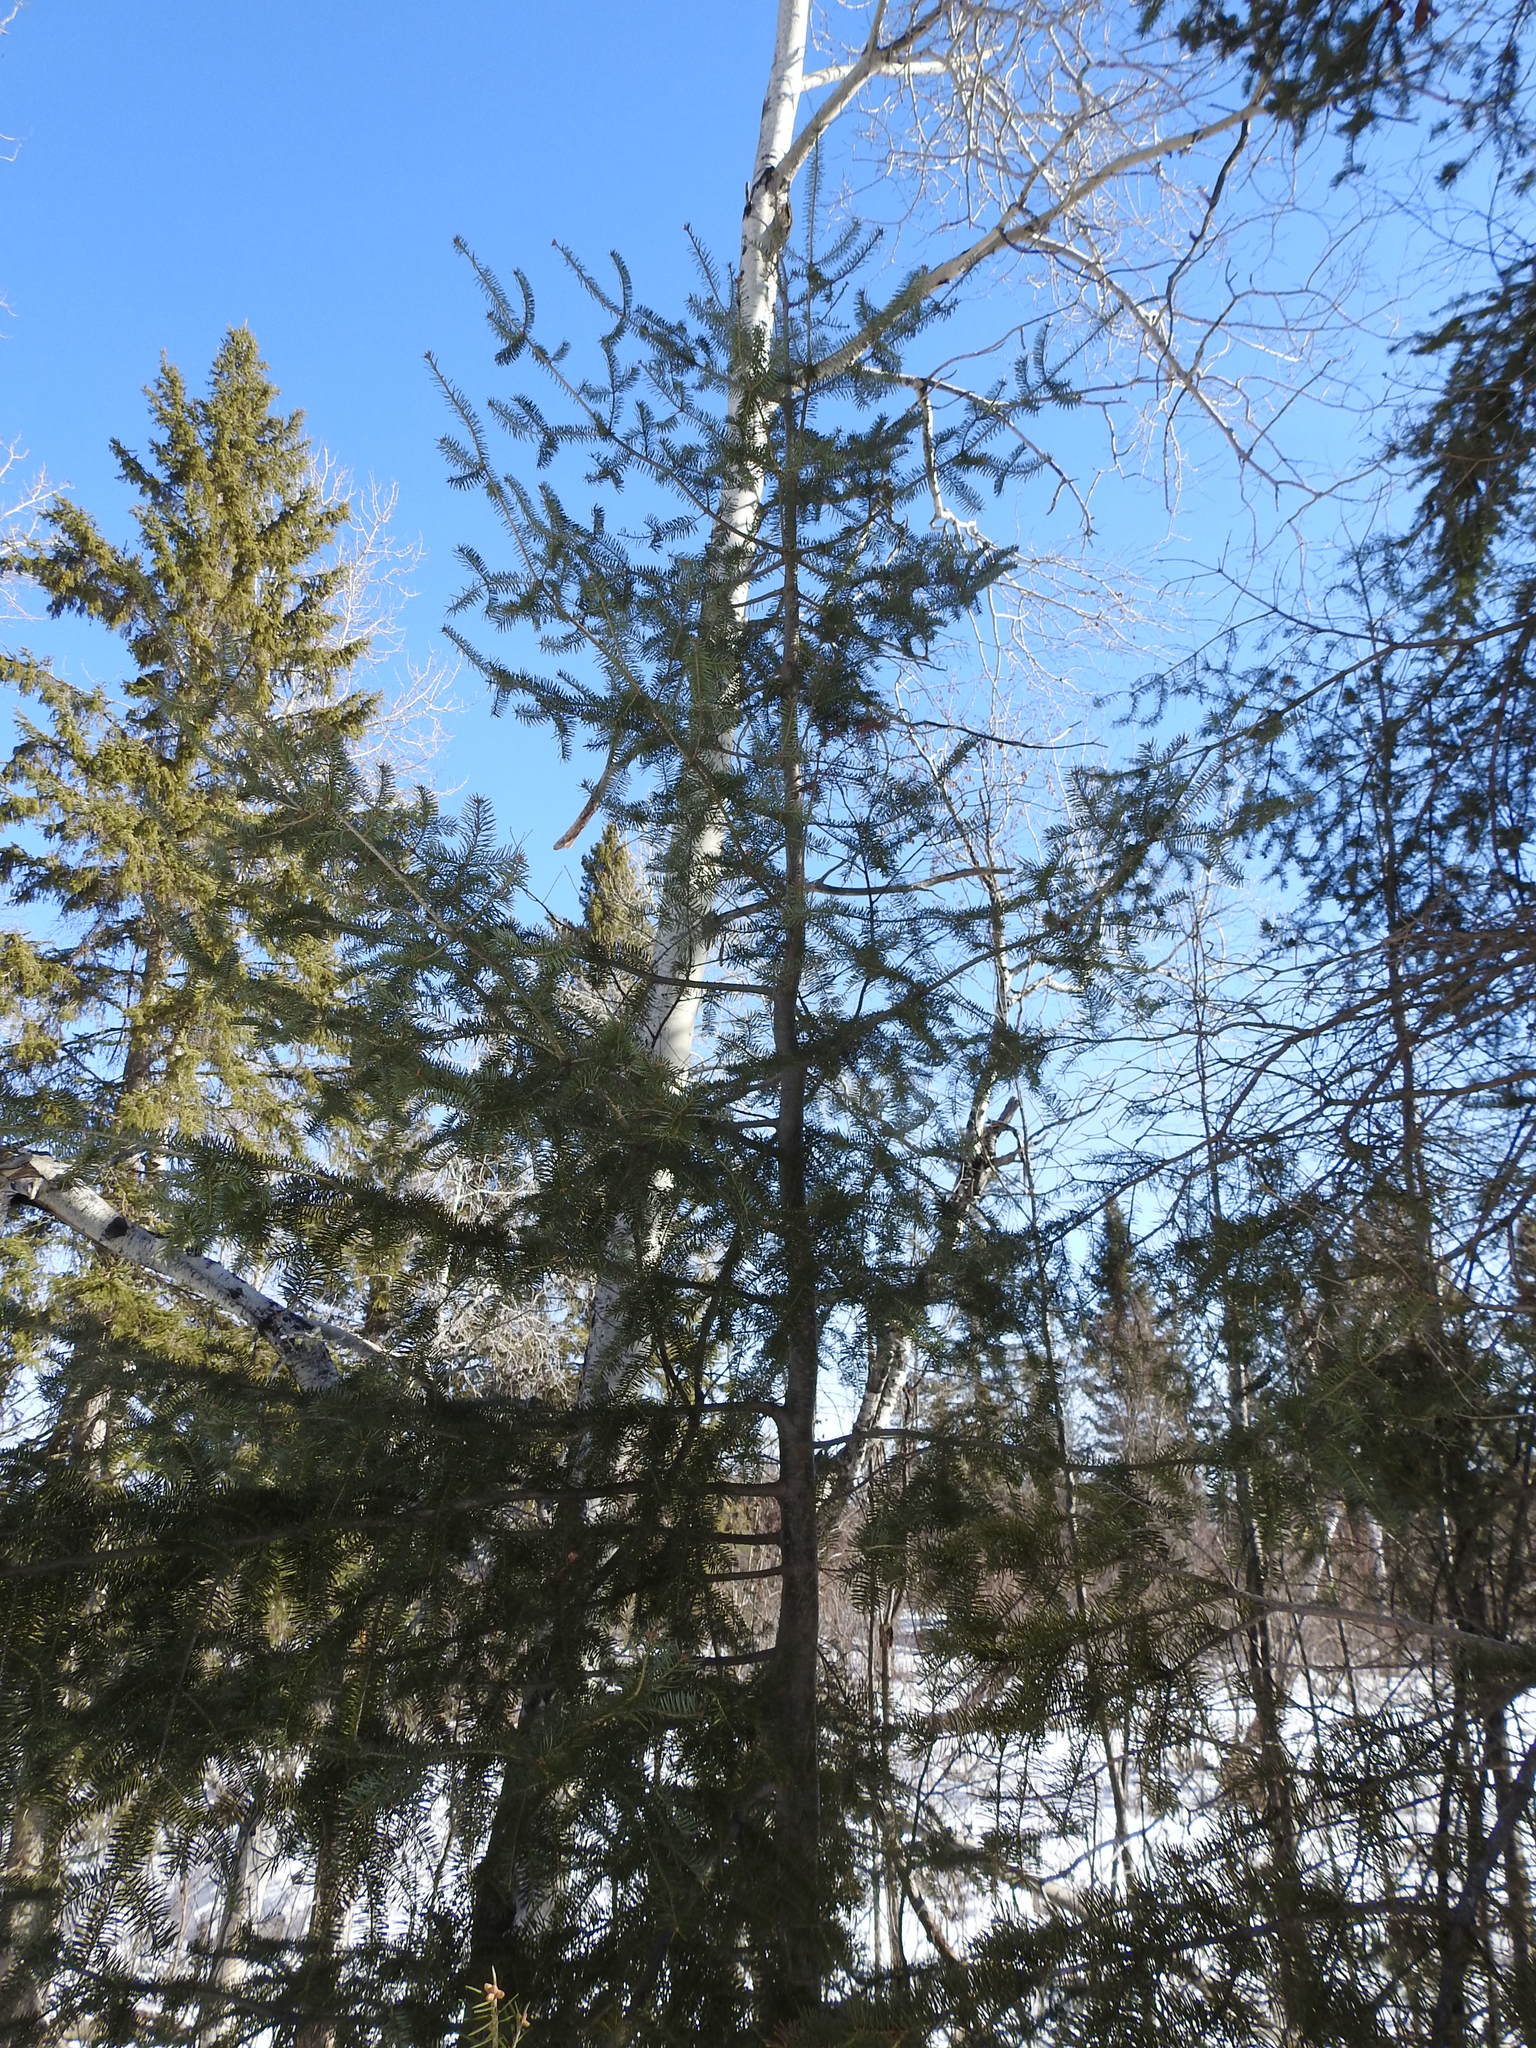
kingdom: Plantae
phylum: Tracheophyta
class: Pinopsida
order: Pinales
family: Pinaceae
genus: Abies
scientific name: Abies balsamea
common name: Balsam fir
